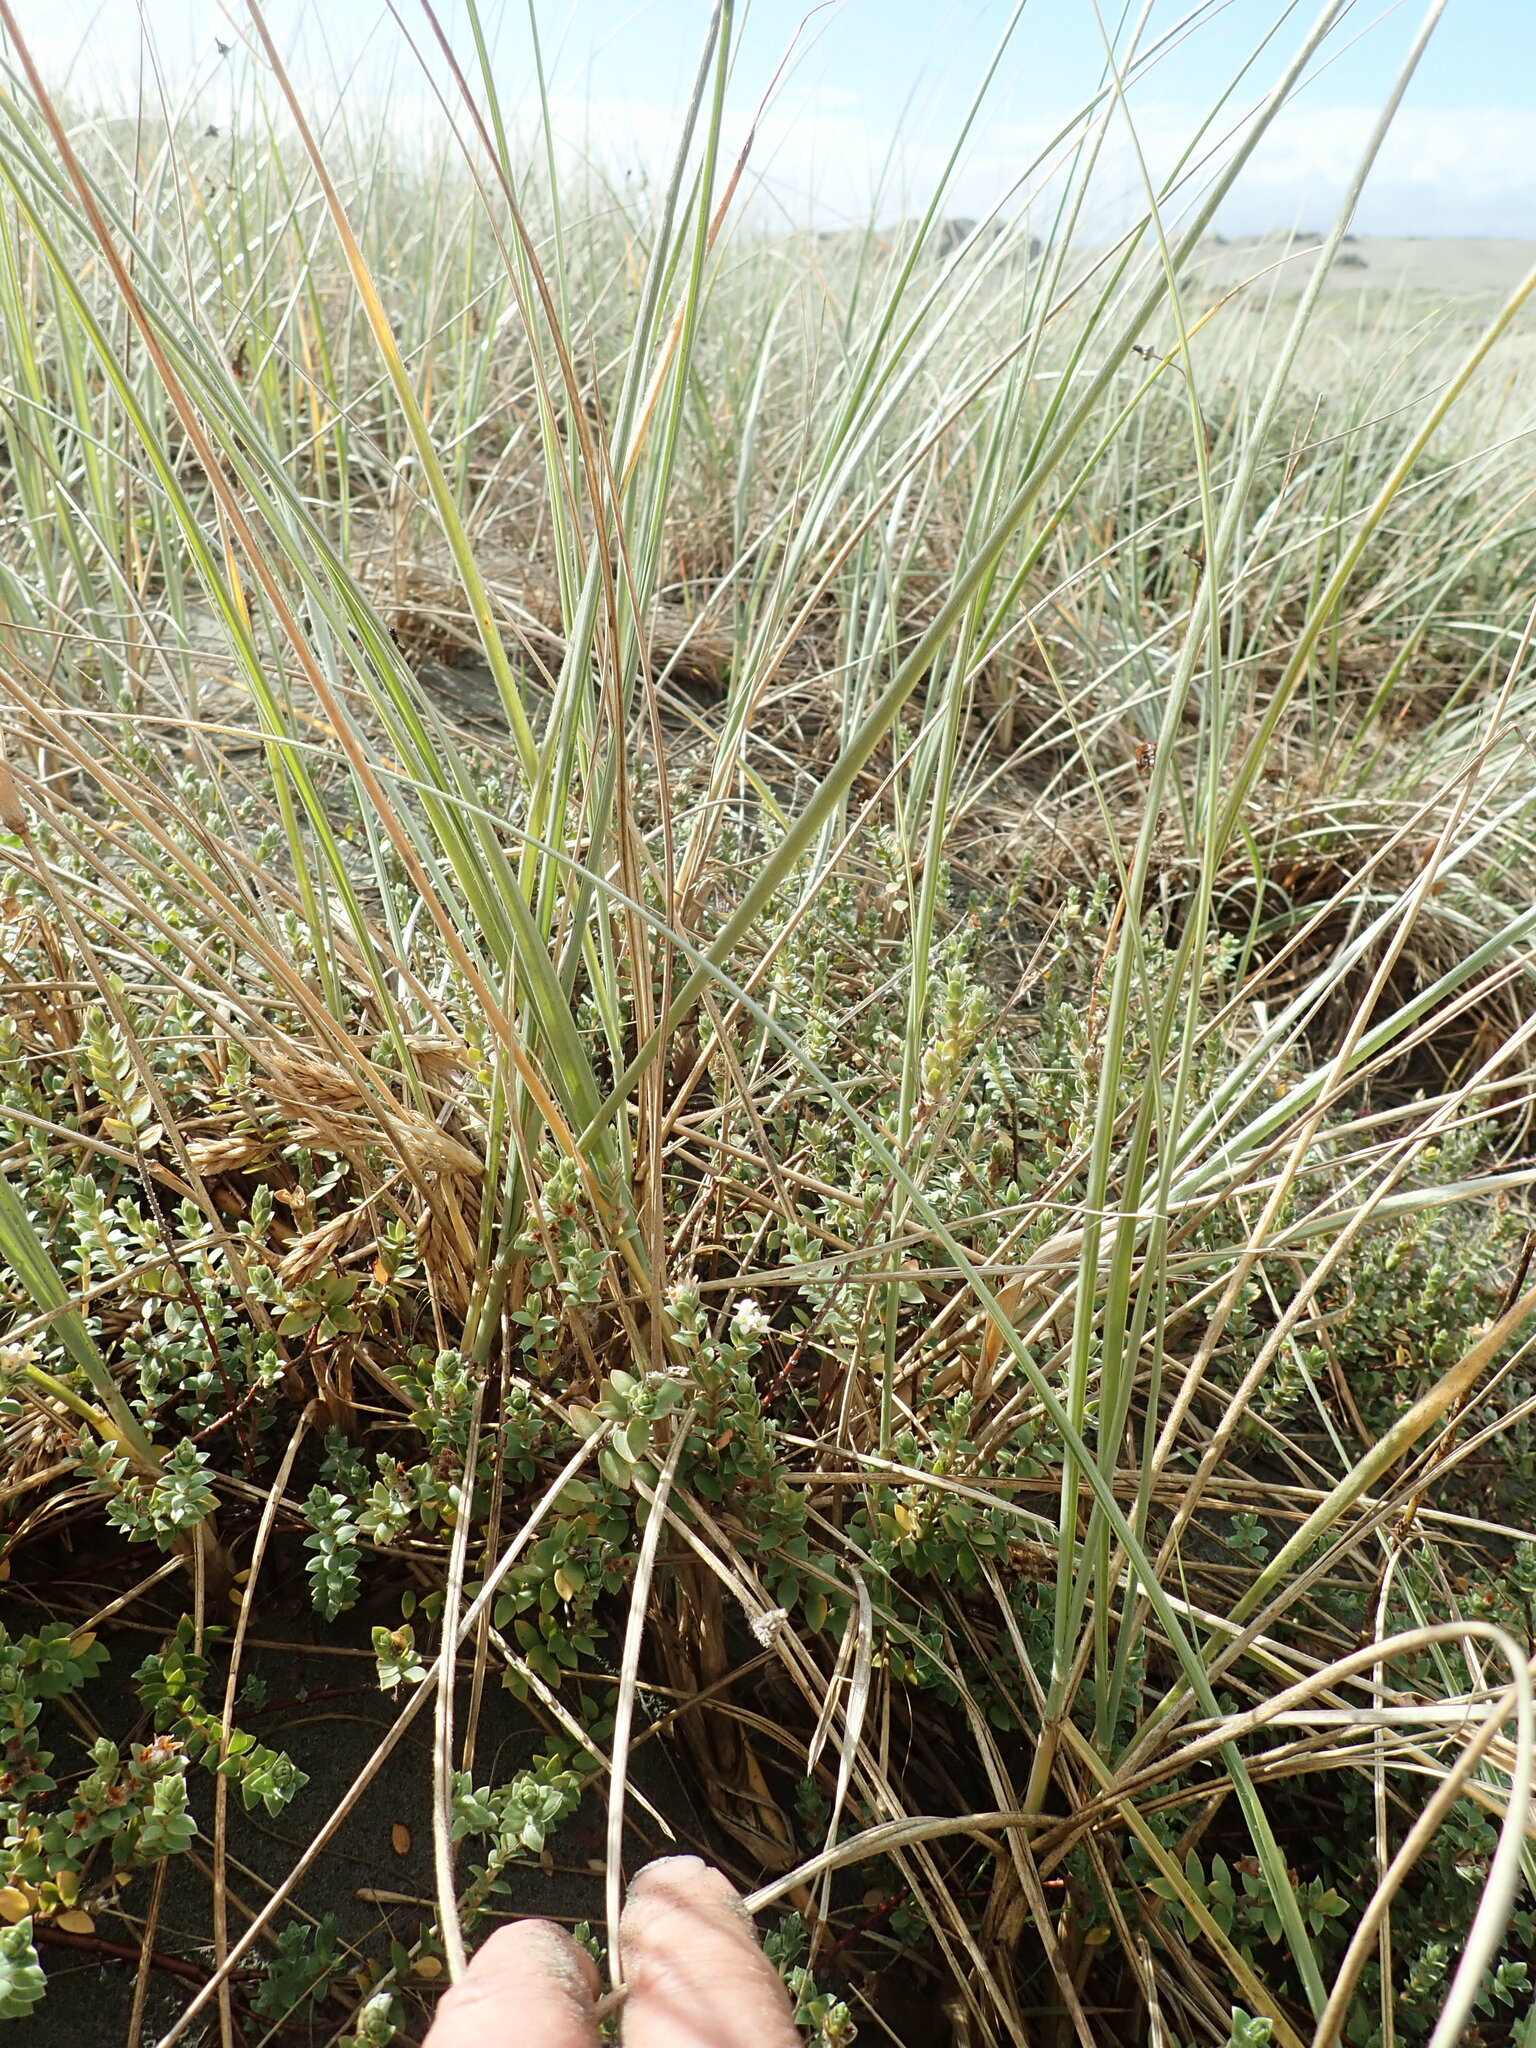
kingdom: Plantae
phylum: Tracheophyta
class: Magnoliopsida
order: Malvales
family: Thymelaeaceae
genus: Pimelea
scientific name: Pimelea villosa
